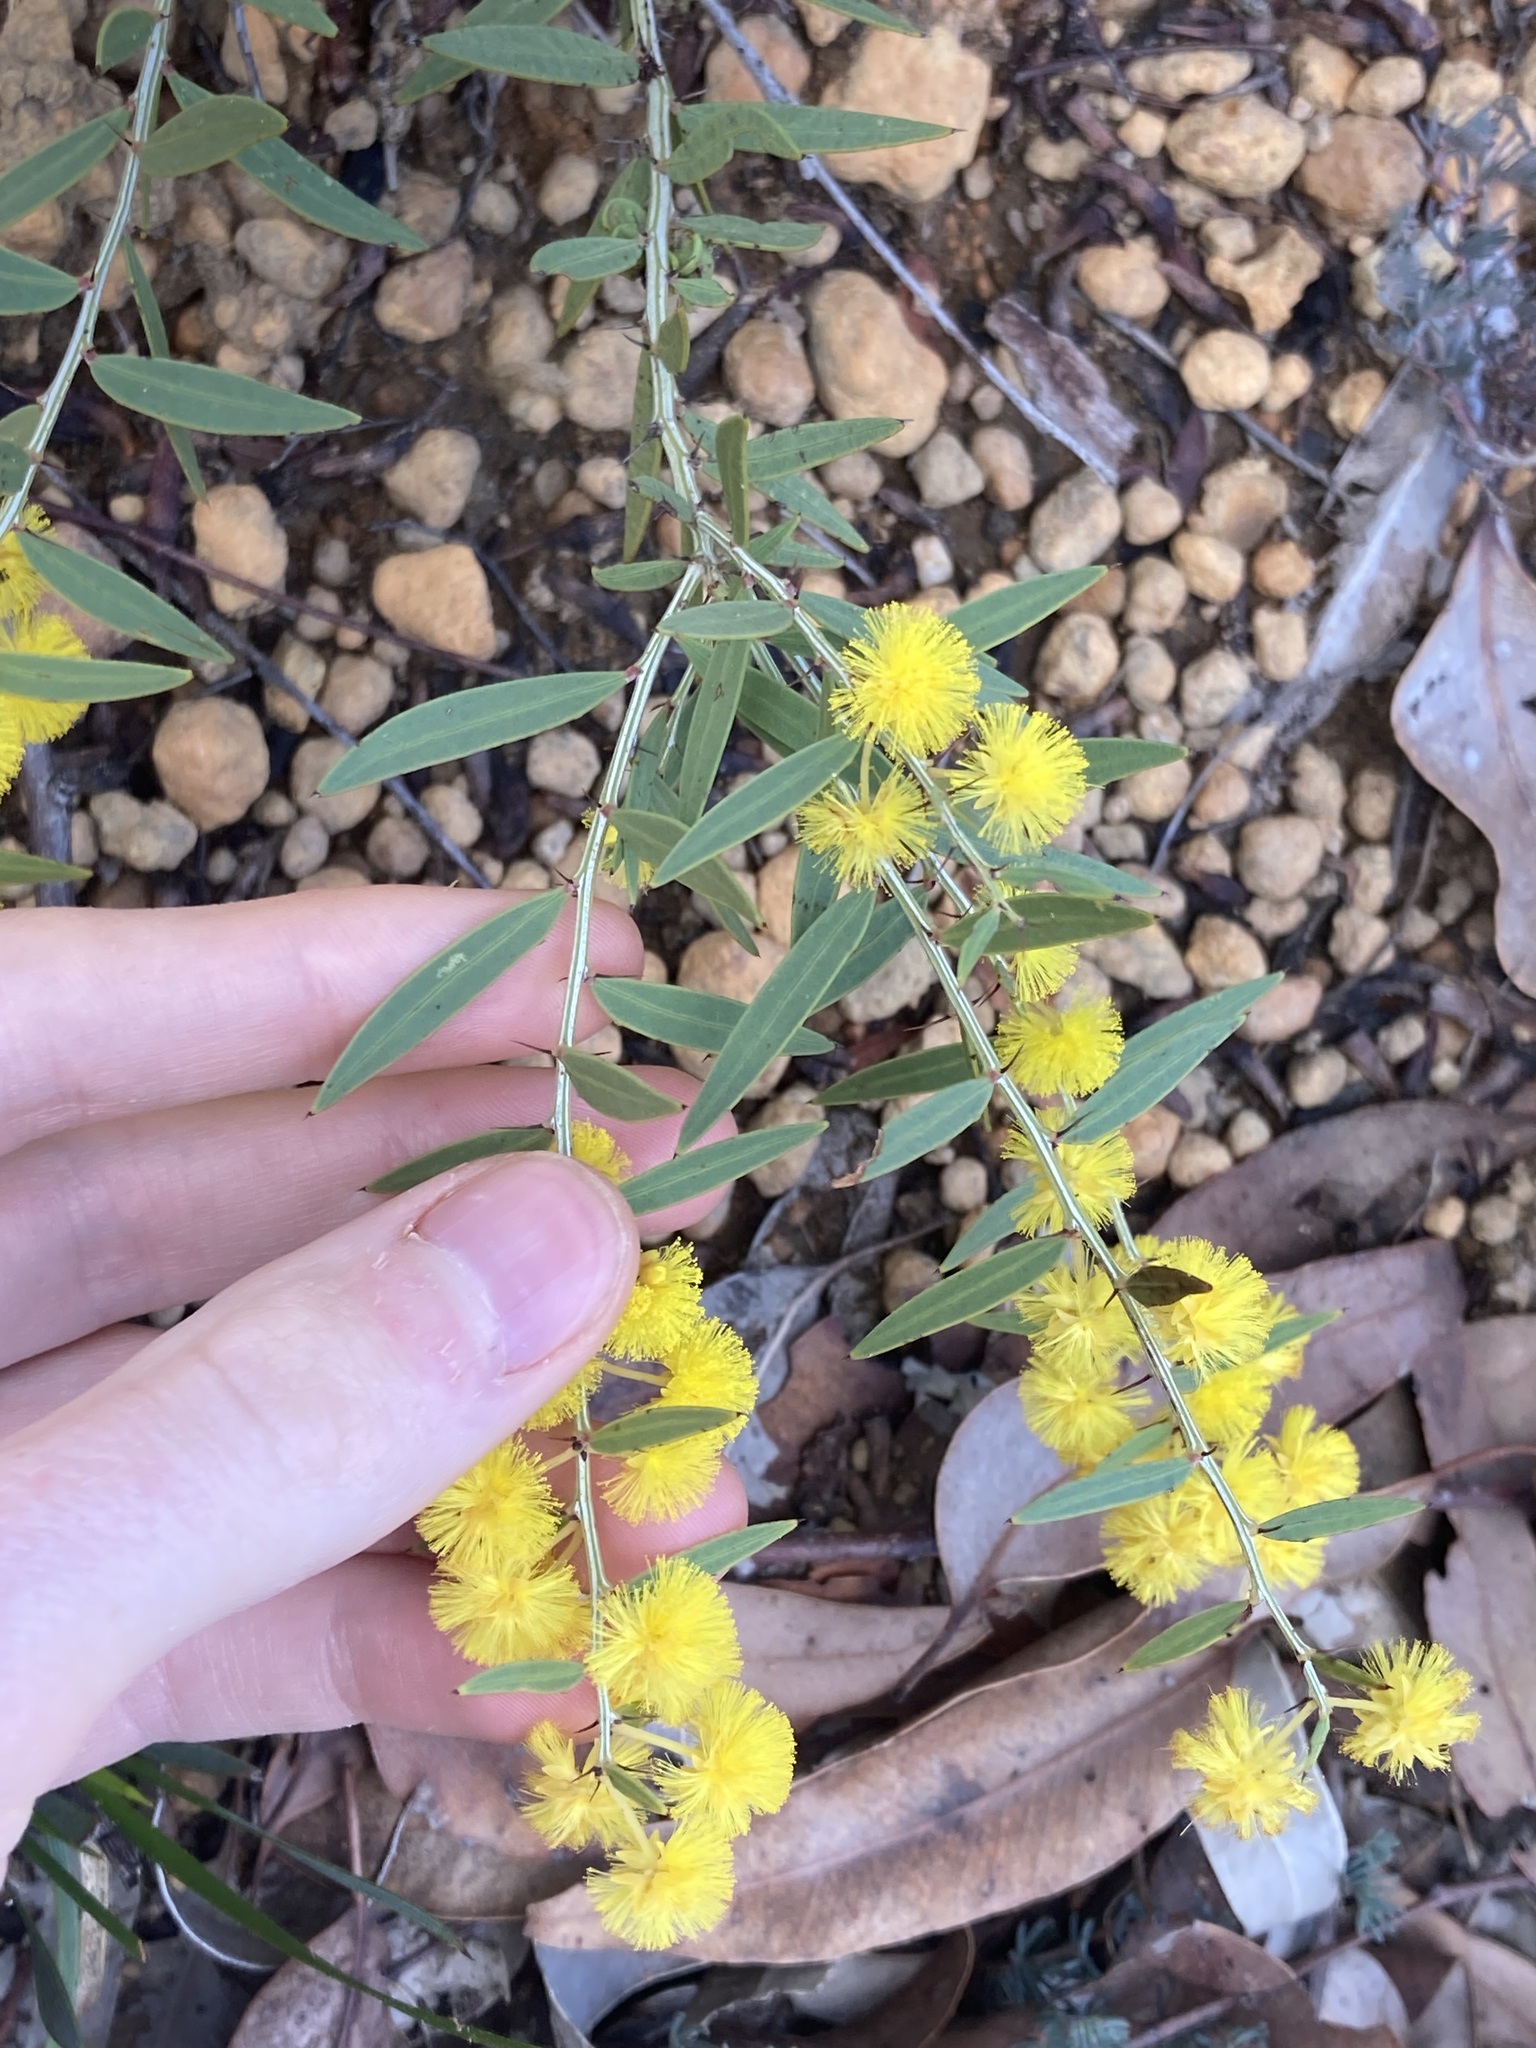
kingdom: Plantae
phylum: Tracheophyta
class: Magnoliopsida
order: Fabales
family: Fabaceae
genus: Acacia
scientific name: Acacia nervosa
